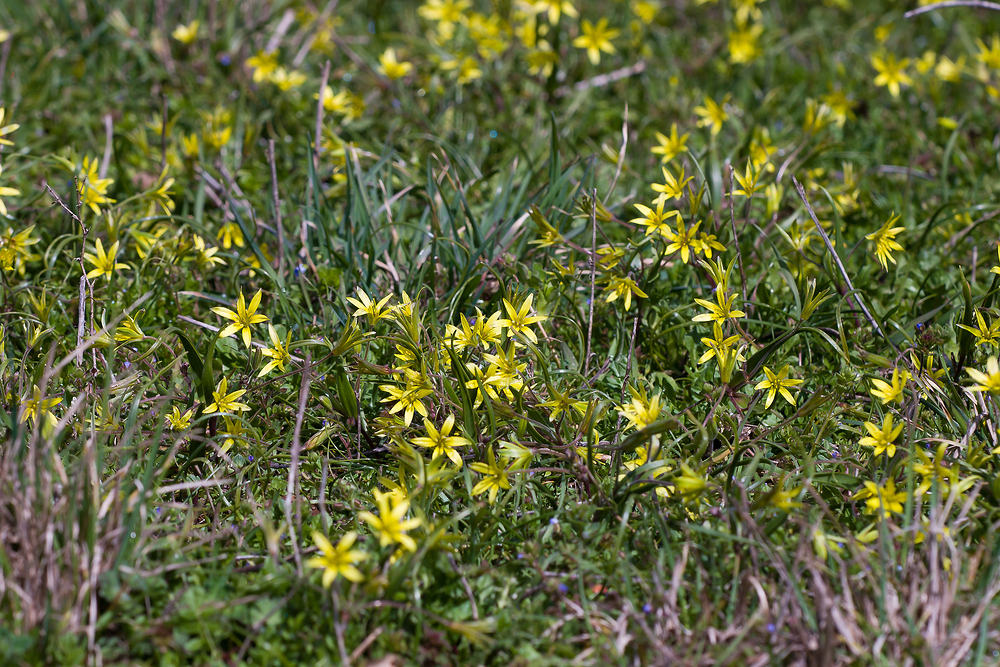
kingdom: Plantae
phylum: Tracheophyta
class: Liliopsida
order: Liliales
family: Liliaceae
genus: Gagea
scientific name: Gagea villosa
